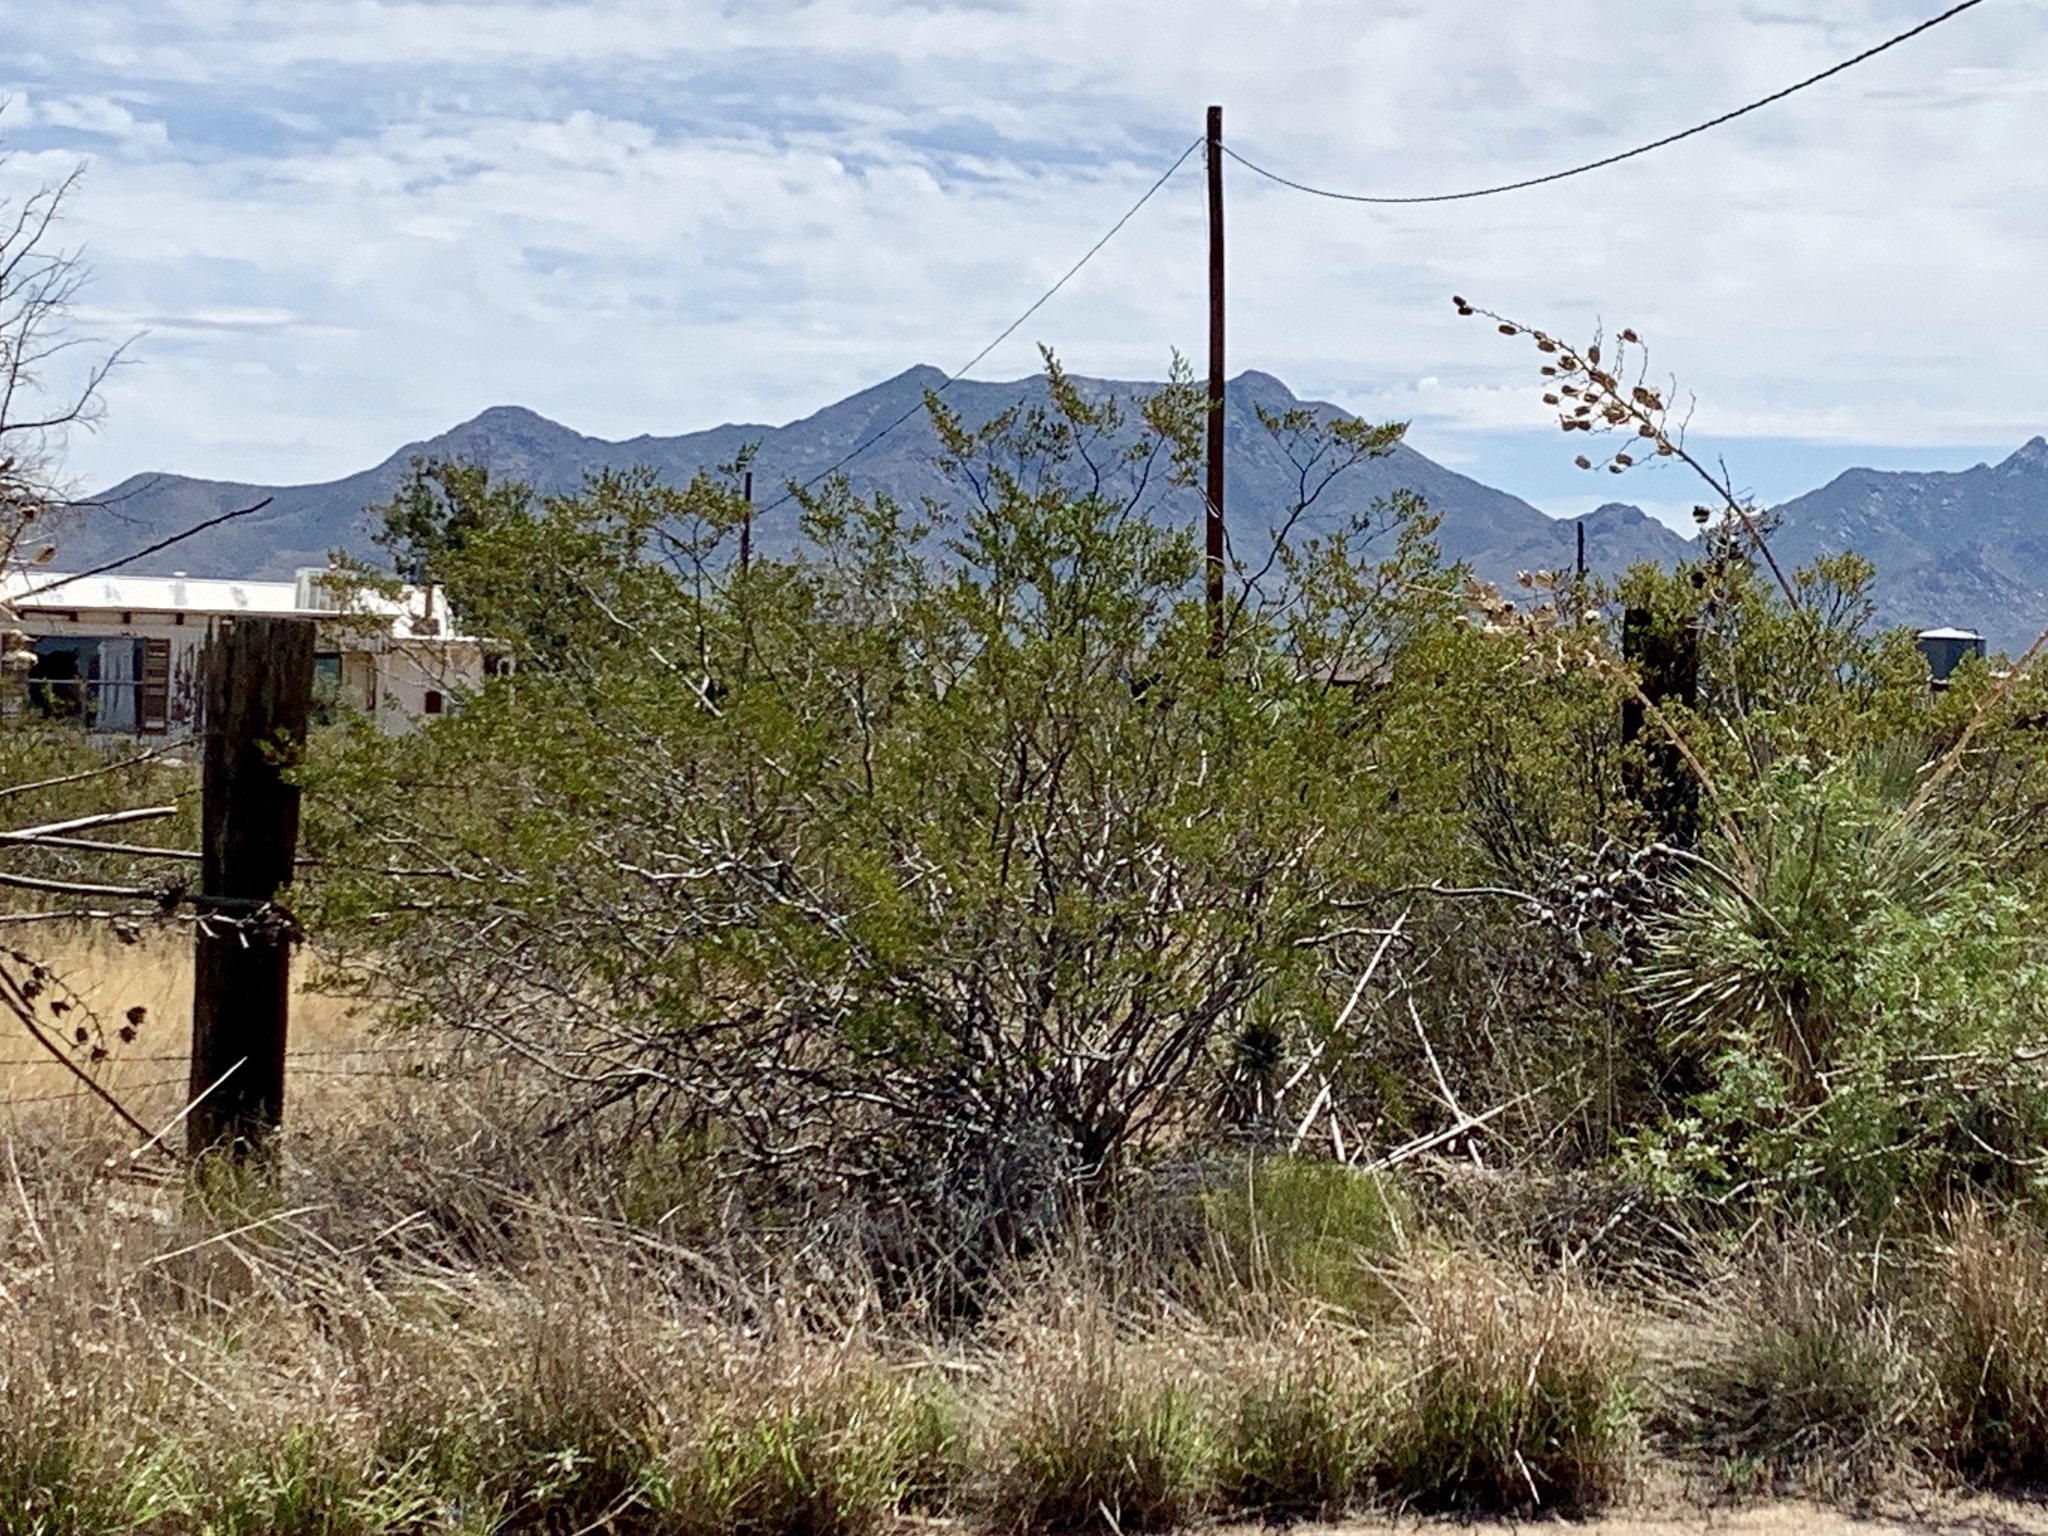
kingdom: Plantae
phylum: Tracheophyta
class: Magnoliopsida
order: Zygophyllales
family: Zygophyllaceae
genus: Larrea
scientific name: Larrea tridentata
